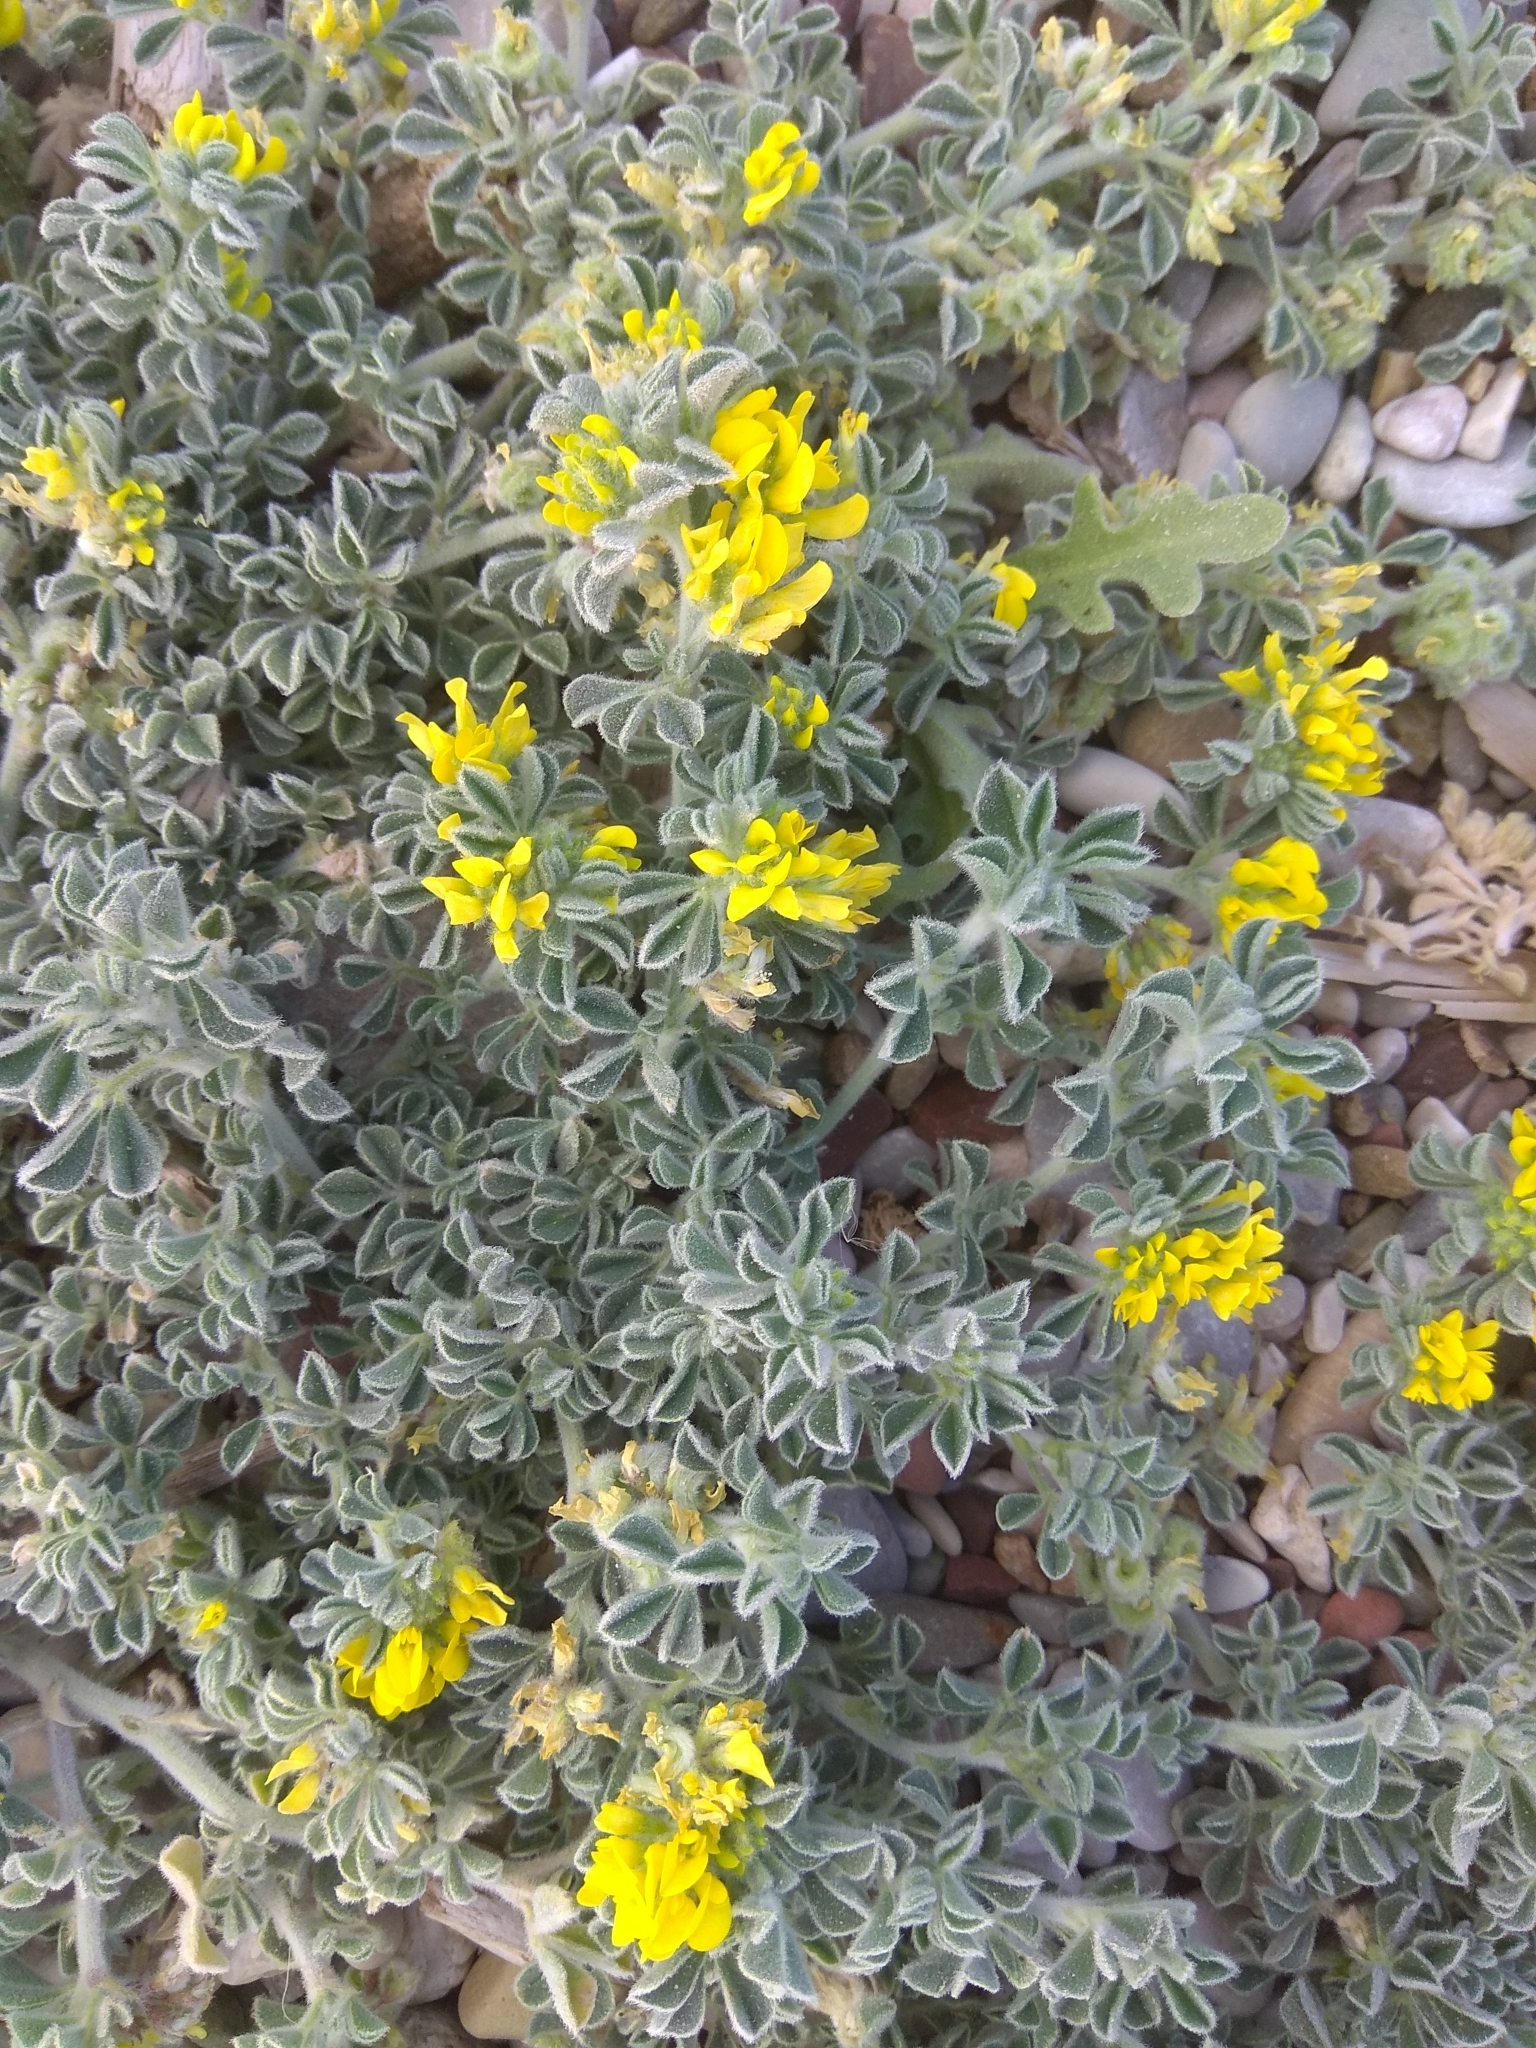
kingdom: Plantae
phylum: Tracheophyta
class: Magnoliopsida
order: Fabales
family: Fabaceae
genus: Medicago
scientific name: Medicago marina
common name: Sea medick
